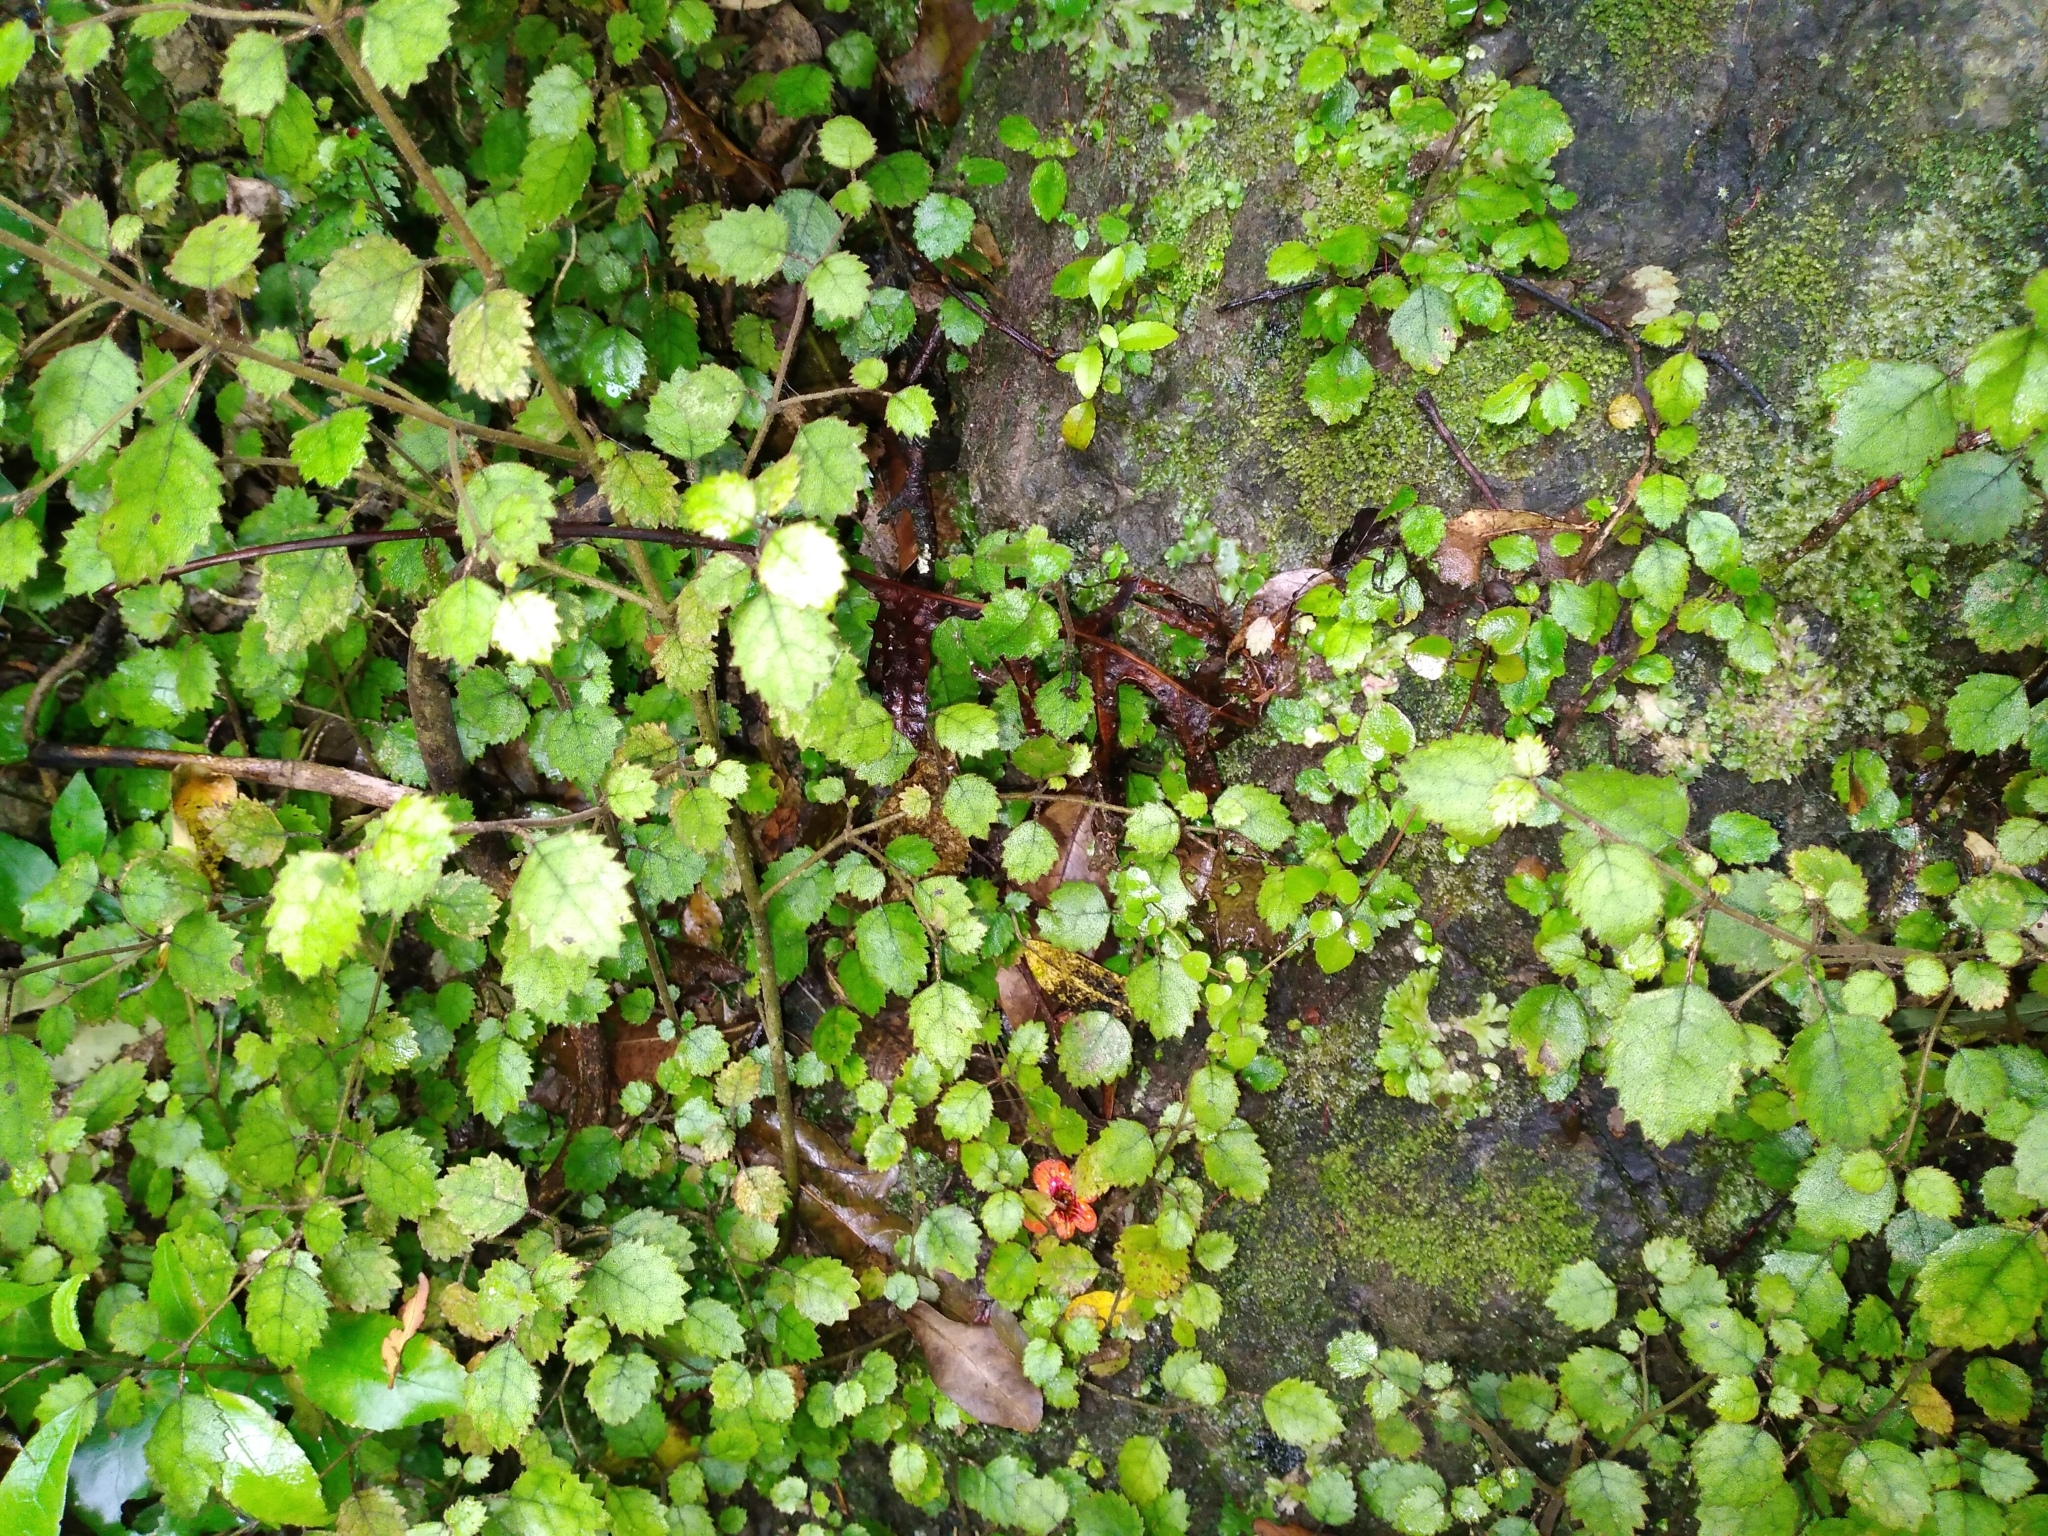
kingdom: Plantae
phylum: Tracheophyta
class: Magnoliopsida
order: Lamiales
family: Gesneriaceae
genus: Rhabdothamnus
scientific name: Rhabdothamnus solandri
